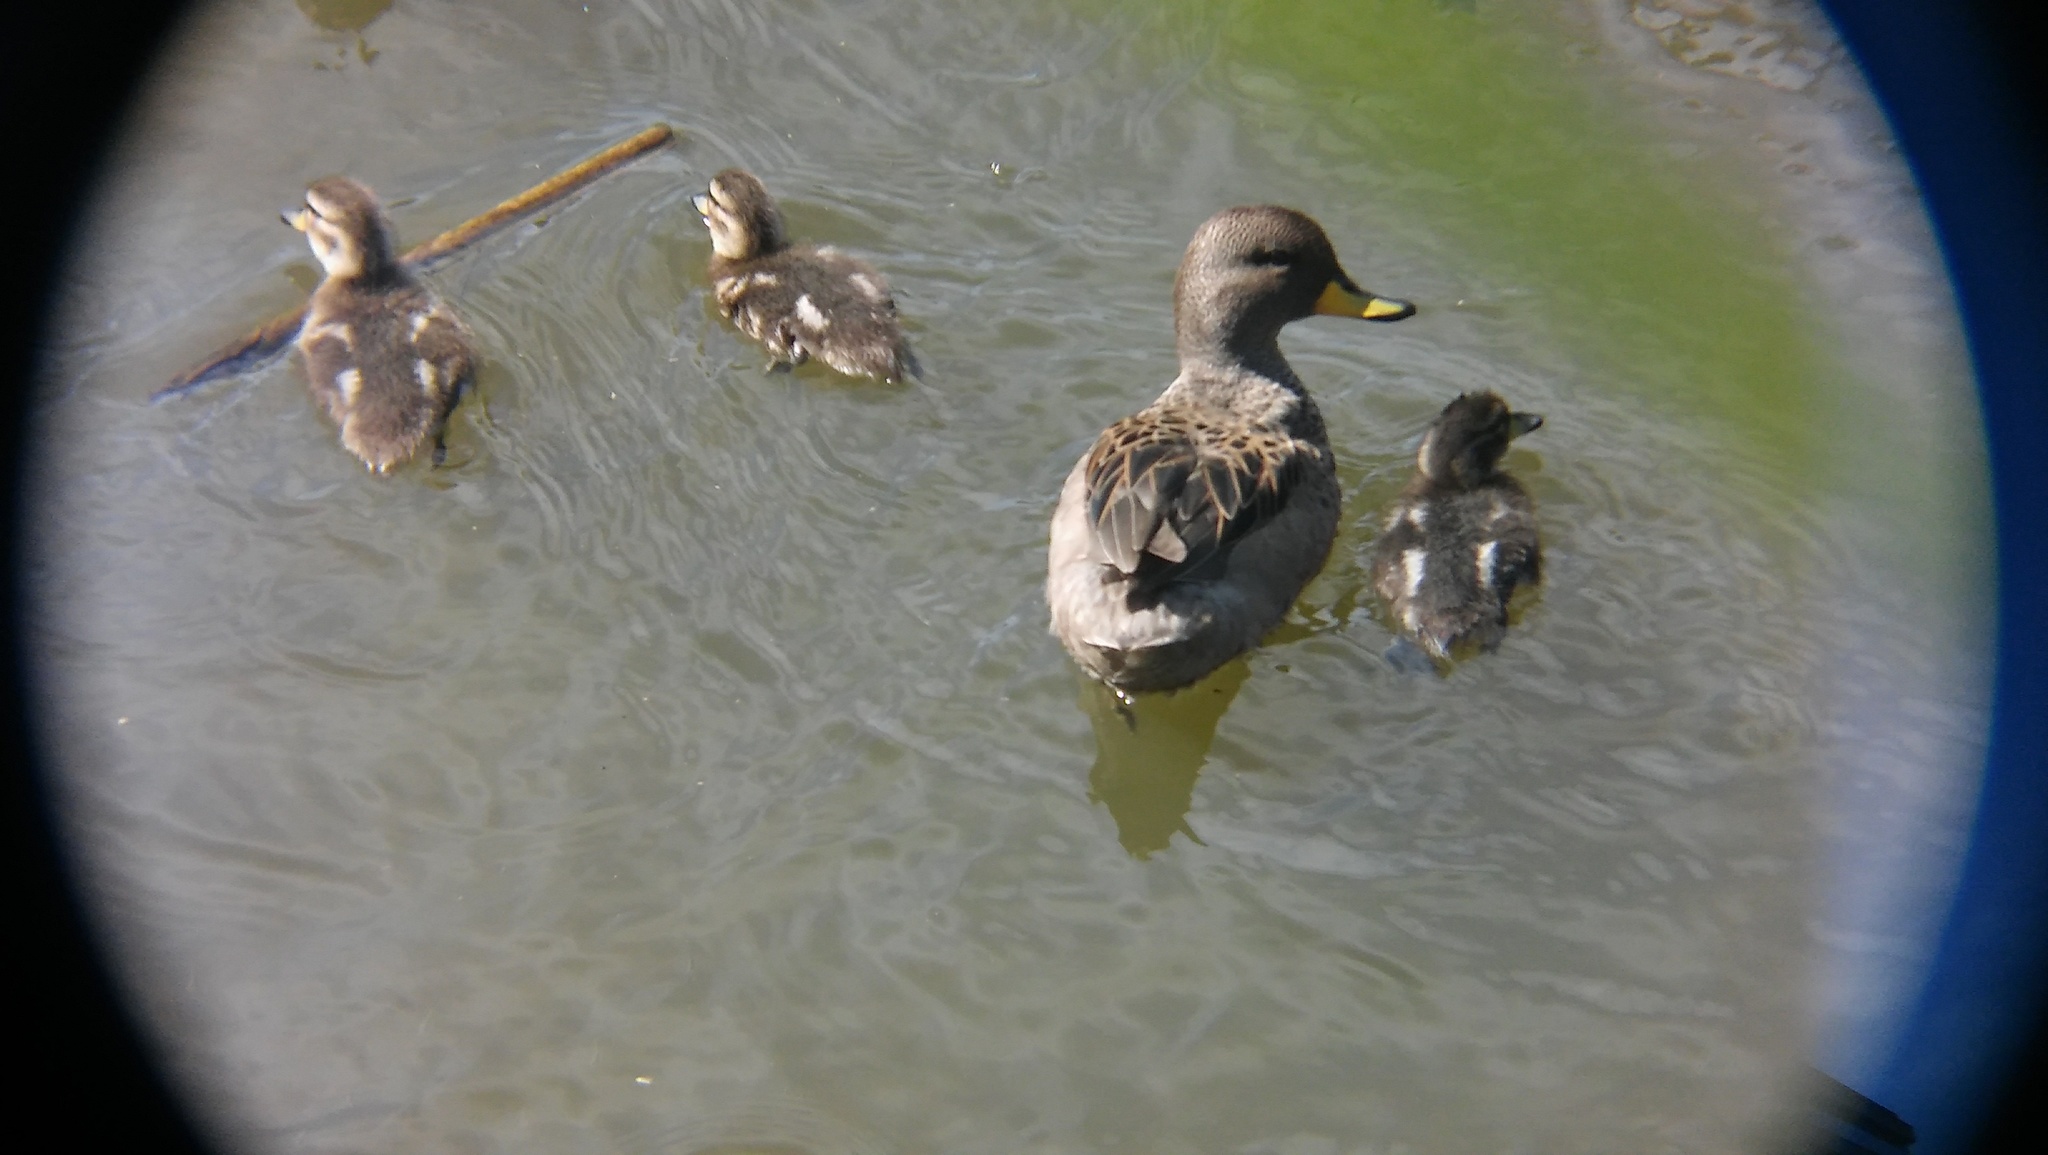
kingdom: Animalia
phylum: Chordata
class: Aves
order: Anseriformes
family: Anatidae
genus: Anas
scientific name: Anas flavirostris
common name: Yellow-billed teal
